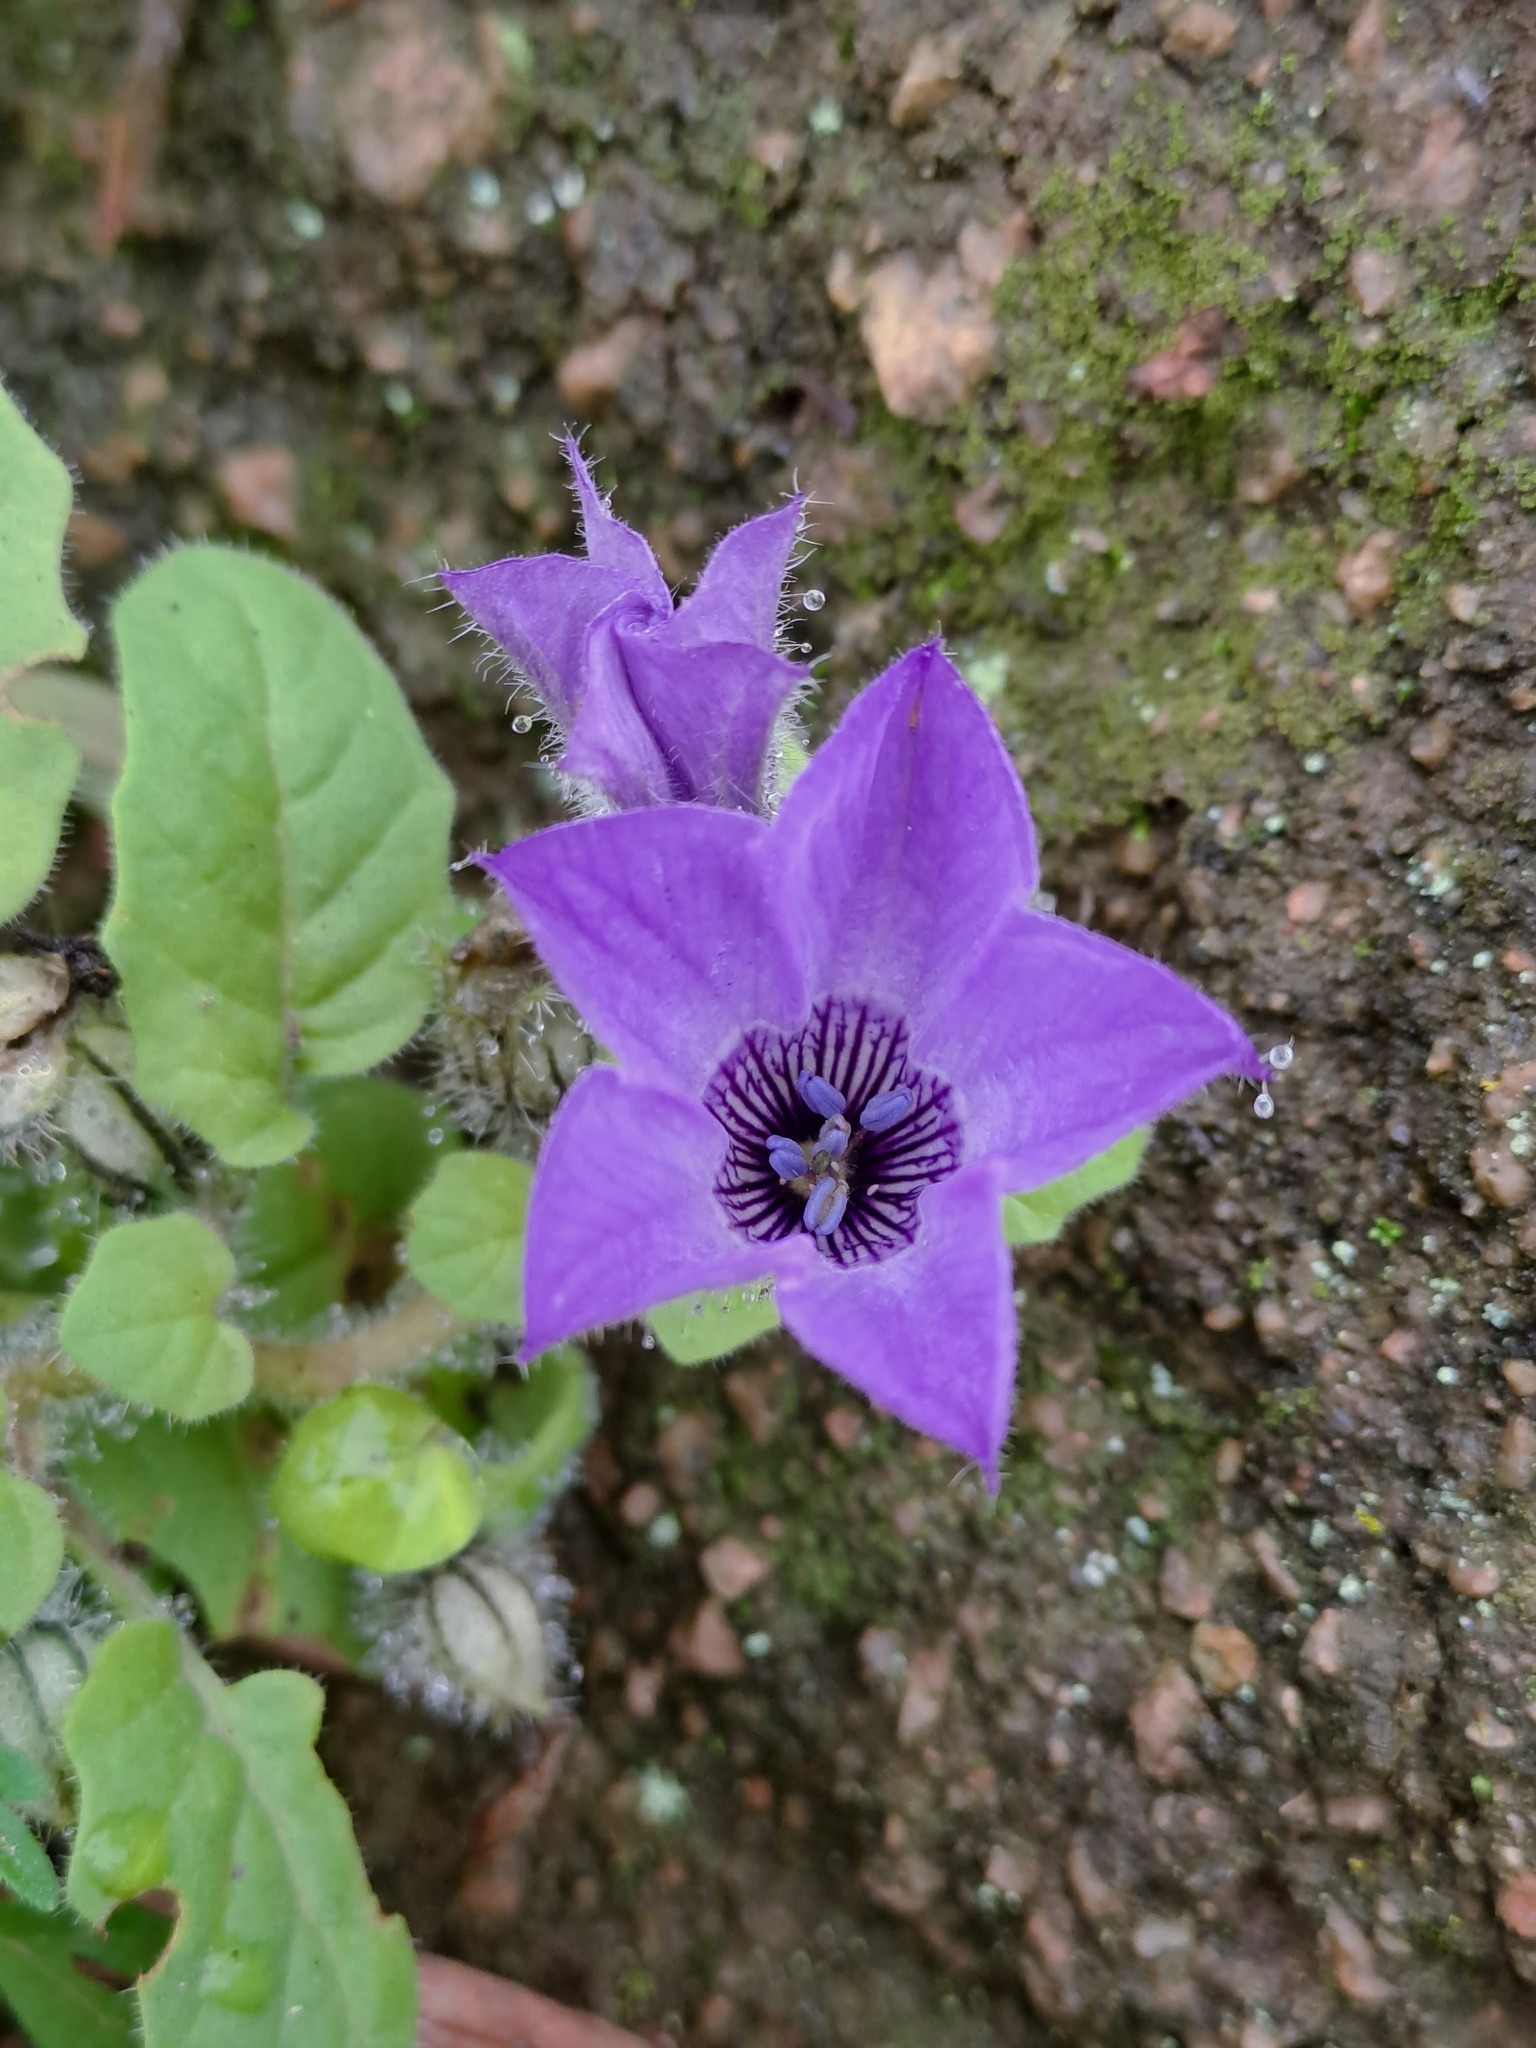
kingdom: Plantae
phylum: Tracheophyta
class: Magnoliopsida
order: Solanales
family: Solanaceae
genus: Exodeconus
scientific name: Exodeconus prostratus
